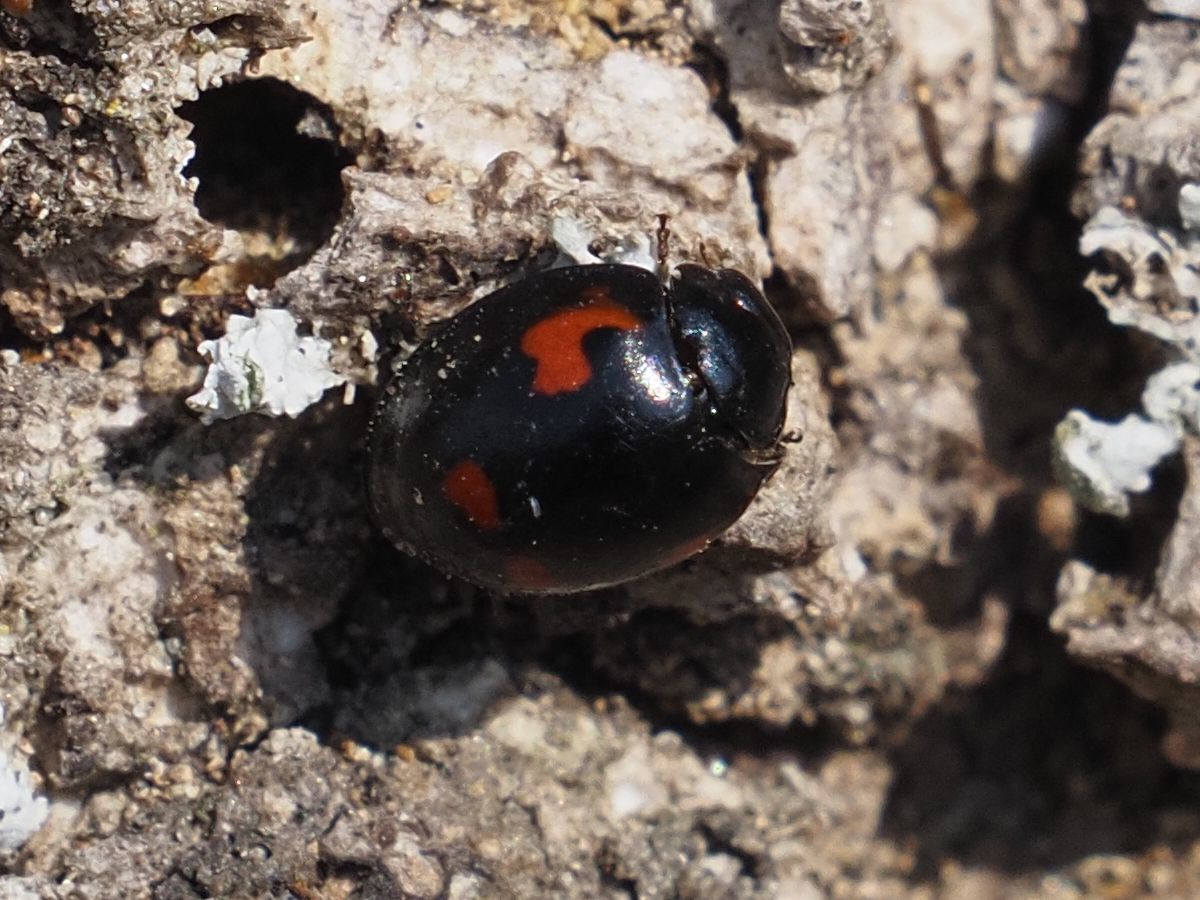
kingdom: Animalia
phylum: Arthropoda
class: Insecta
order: Coleoptera
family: Coccinellidae
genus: Brumus
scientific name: Brumus quadripustulatus
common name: Ladybird beetle
